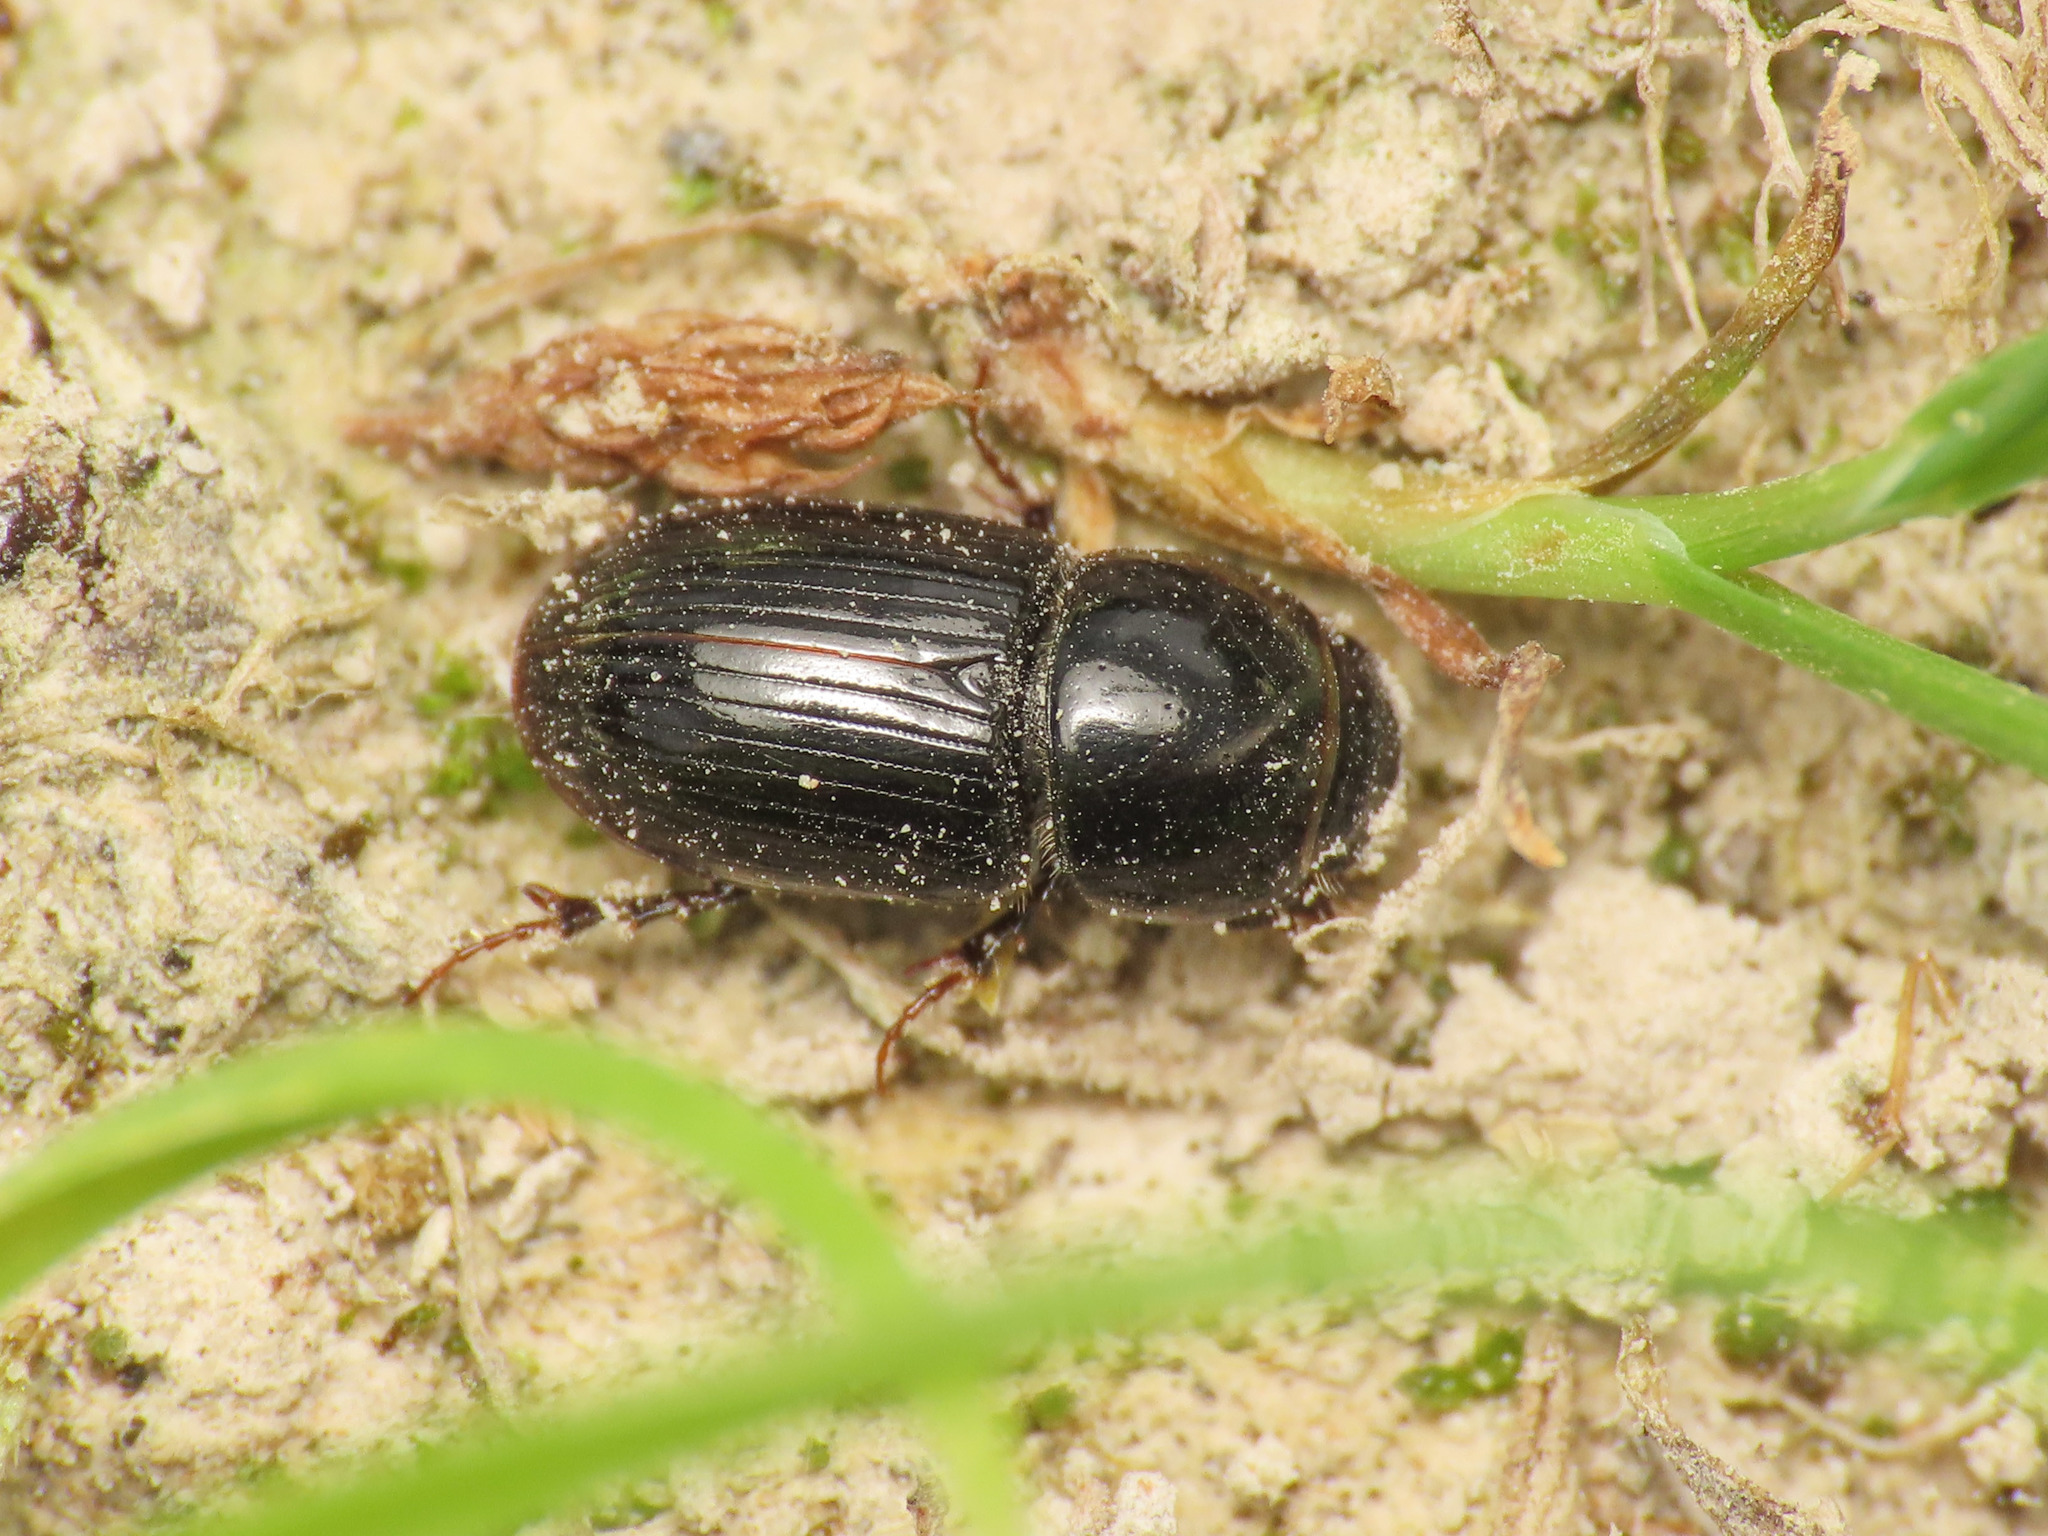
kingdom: Animalia
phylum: Arthropoda
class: Insecta
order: Coleoptera
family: Scarabaeidae
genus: Calamosternus
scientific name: Calamosternus granarius
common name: Granular small dung beetle
